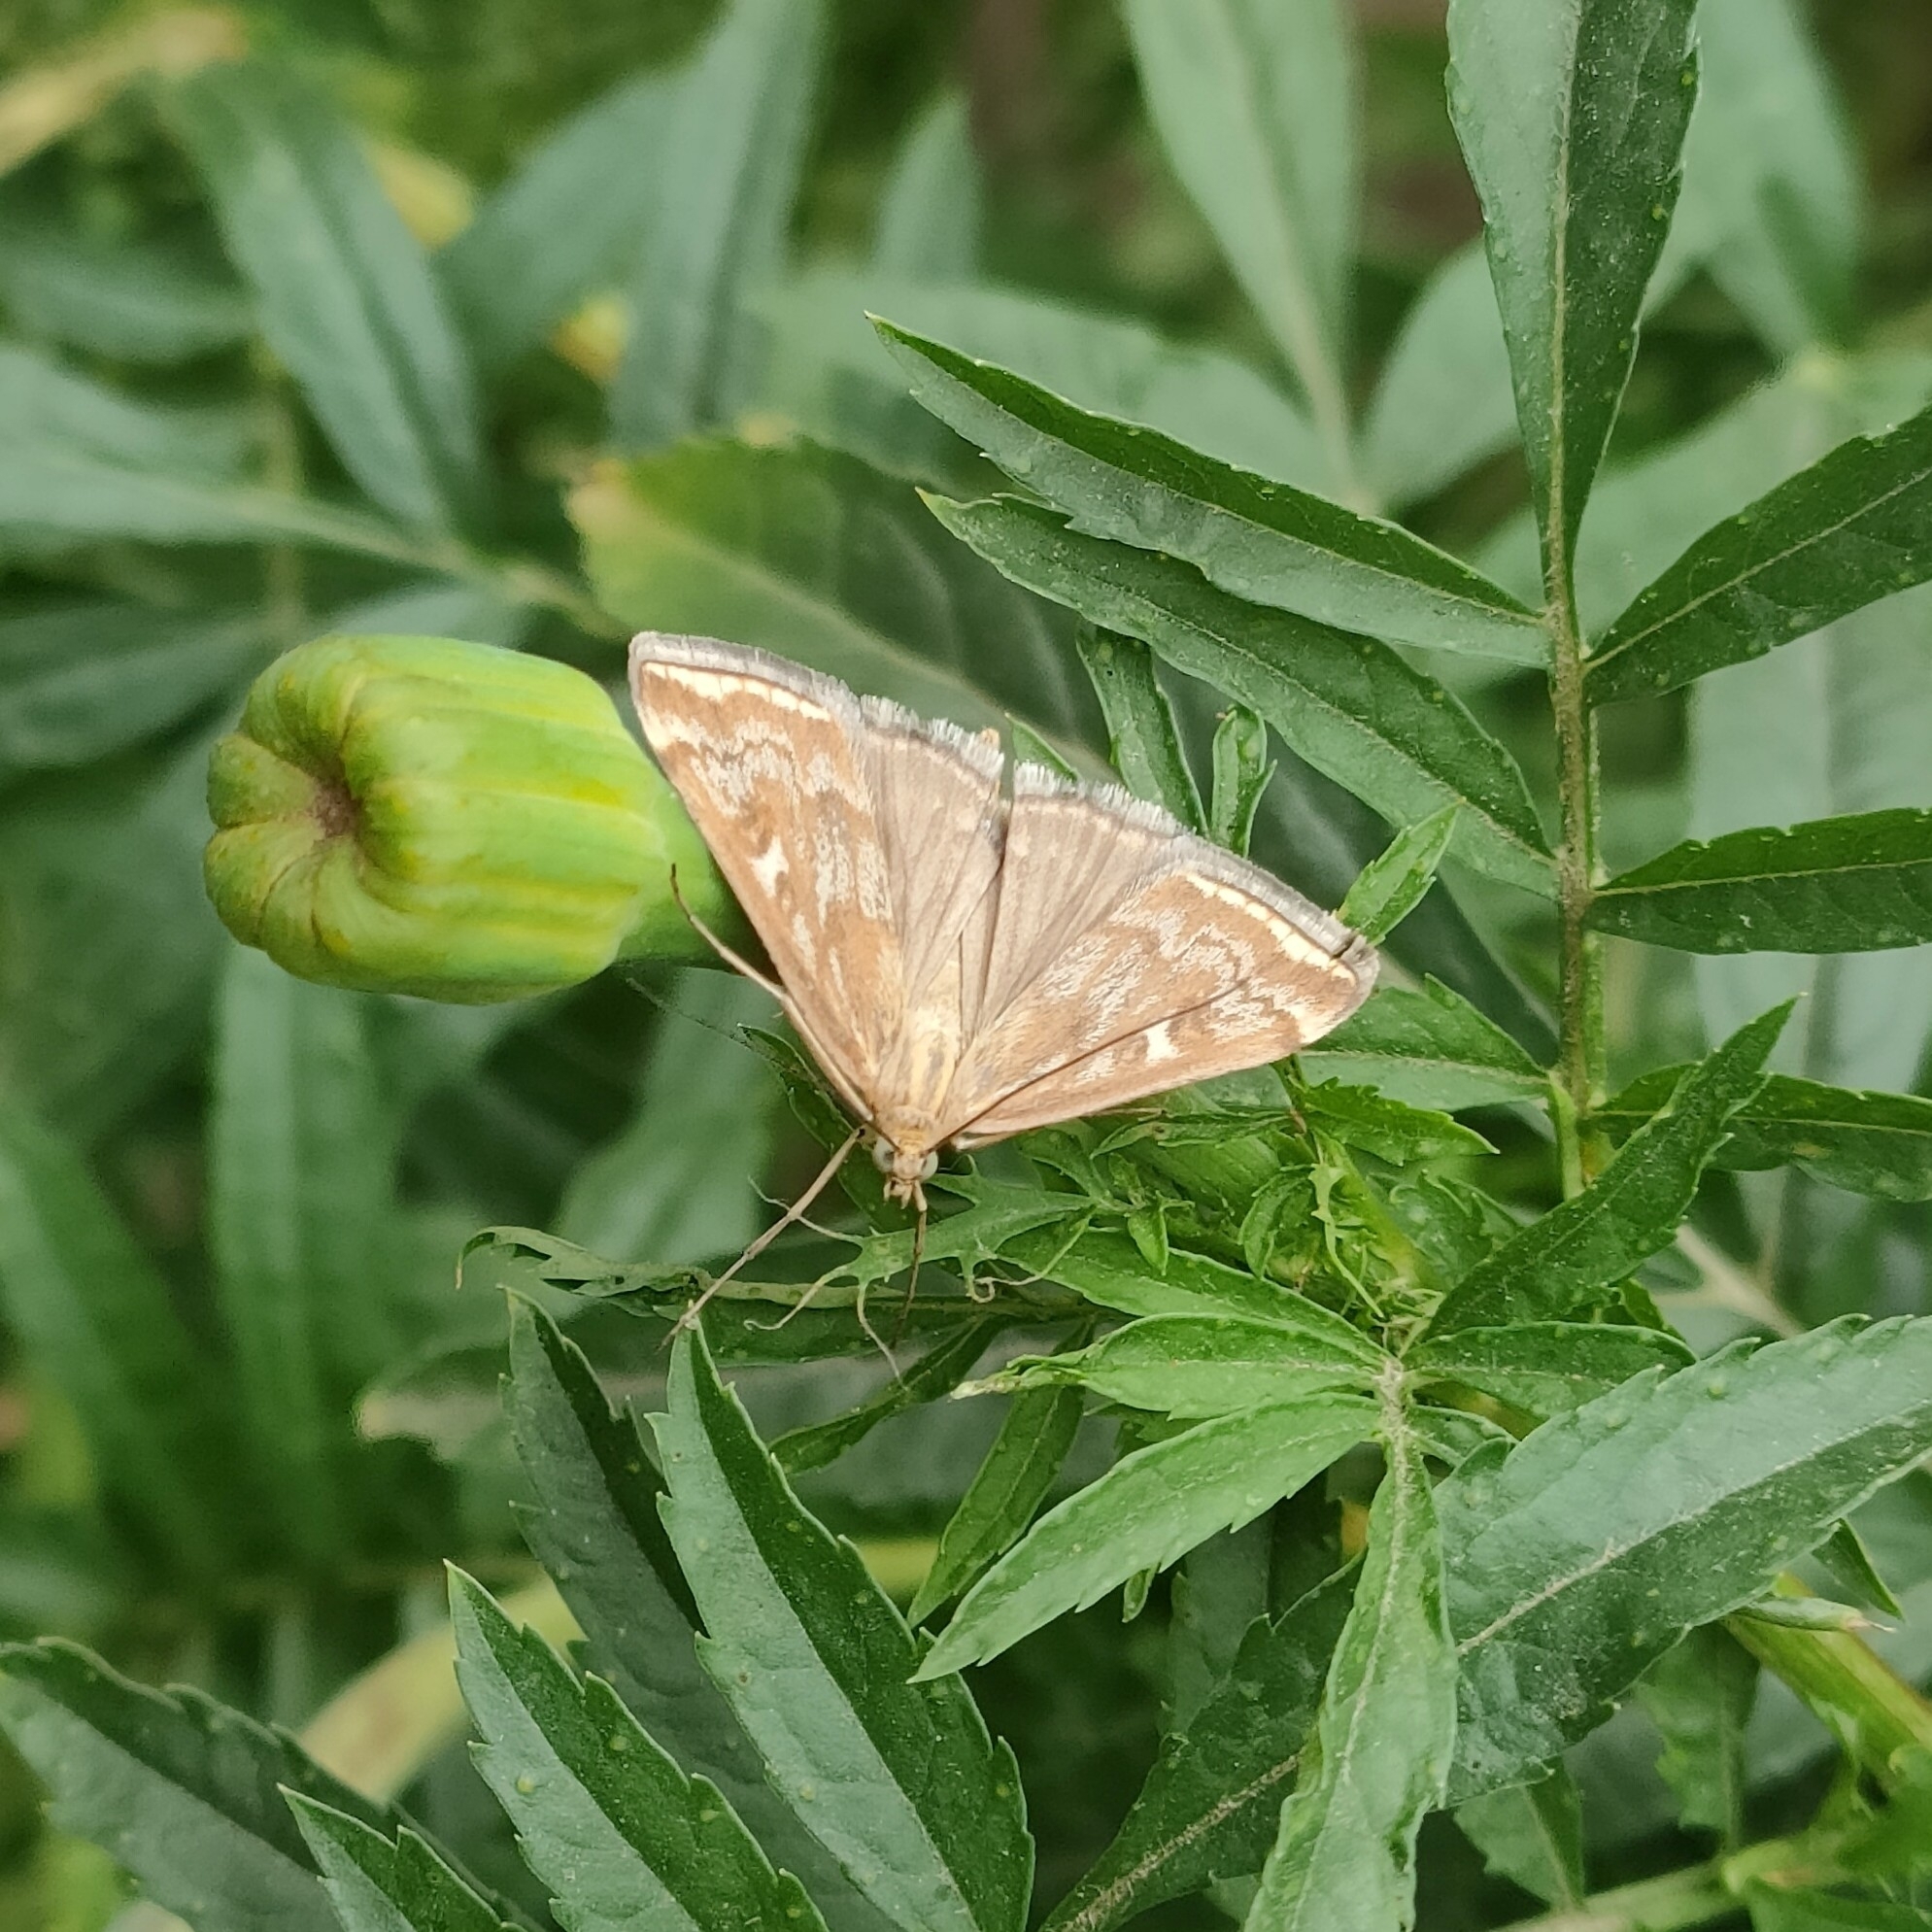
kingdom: Animalia
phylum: Arthropoda
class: Insecta
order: Lepidoptera
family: Crambidae
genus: Loxostege
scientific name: Loxostege sticticalis
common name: Crambid moth
